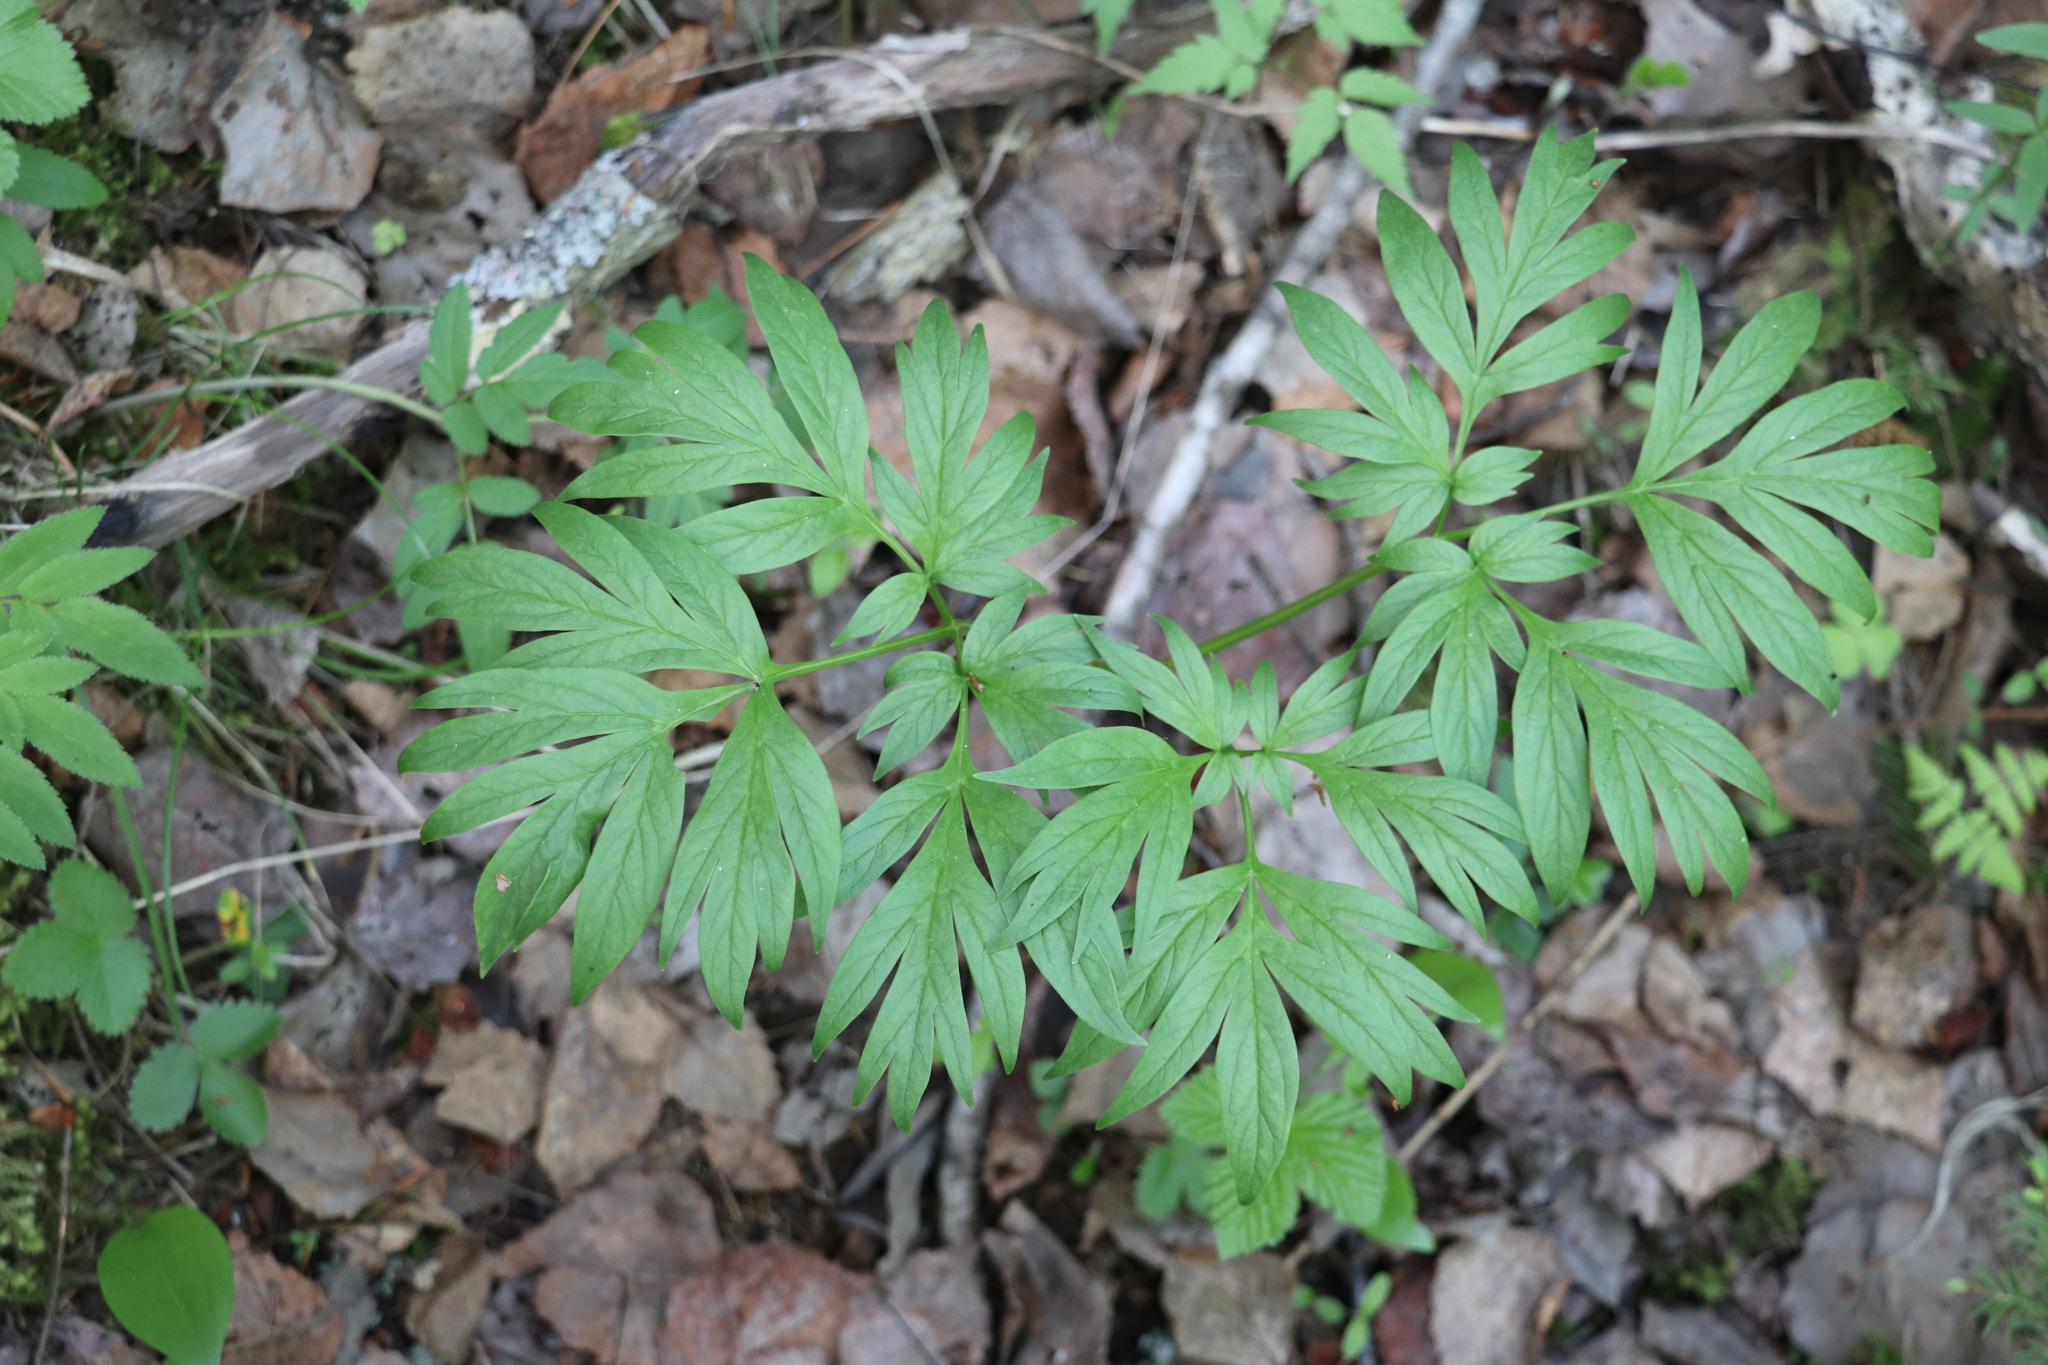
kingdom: Plantae
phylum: Tracheophyta
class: Magnoliopsida
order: Saxifragales
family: Paeoniaceae
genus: Paeonia
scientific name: Paeonia anomala
